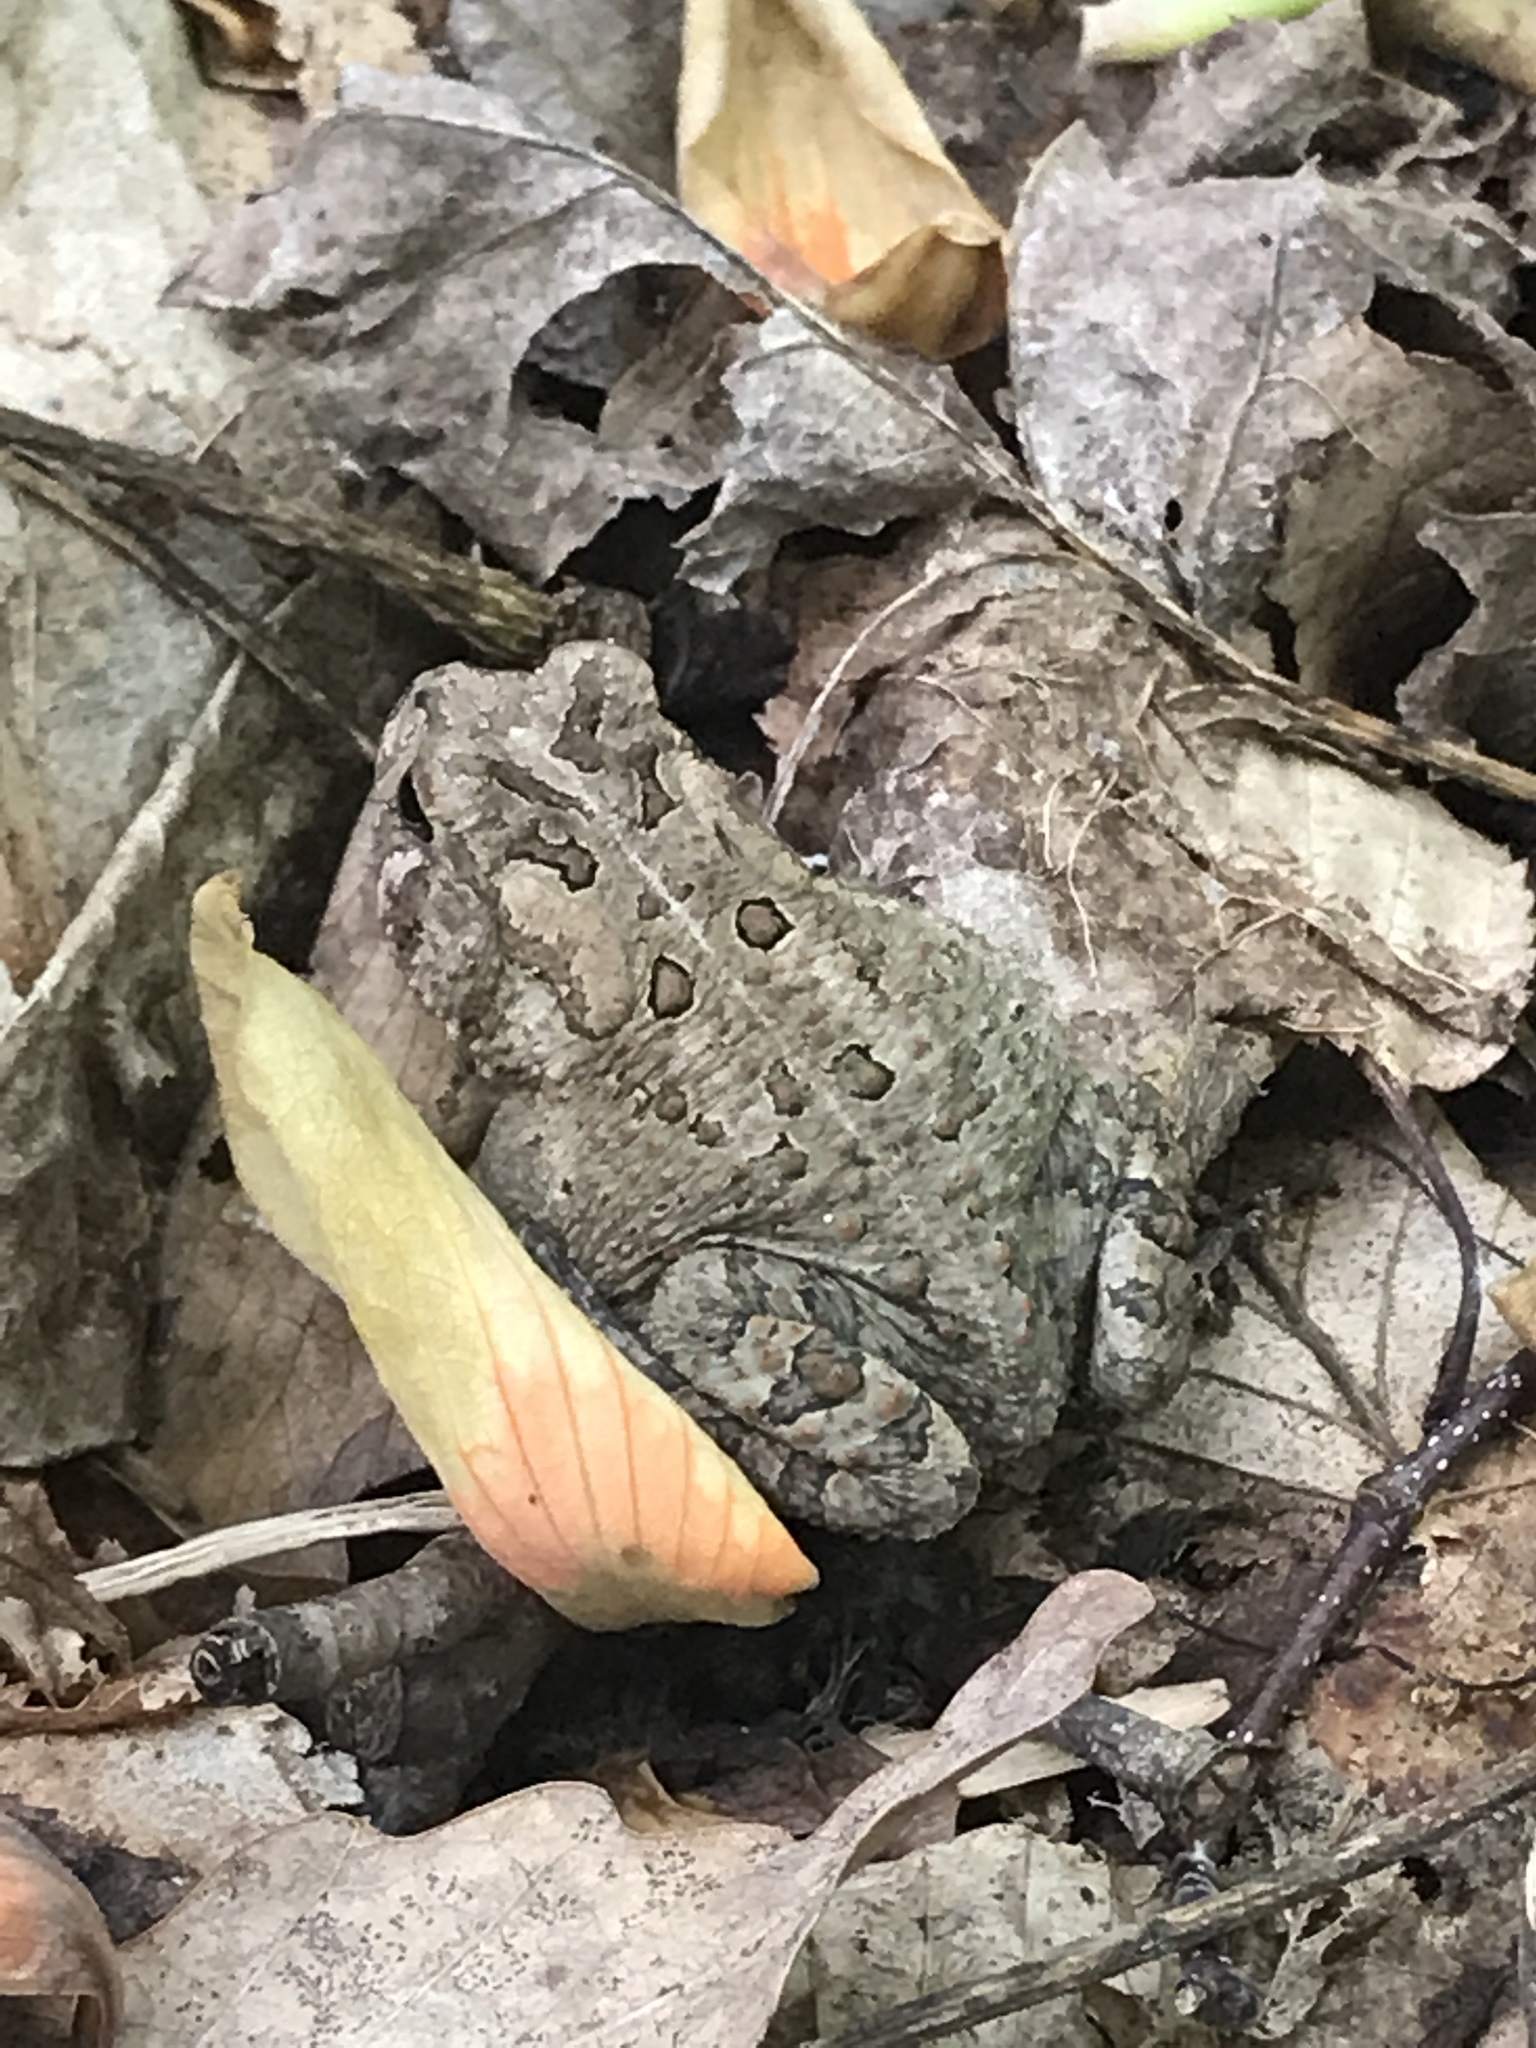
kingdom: Animalia
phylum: Chordata
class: Amphibia
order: Anura
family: Bufonidae
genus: Anaxyrus
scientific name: Anaxyrus americanus
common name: American toad
